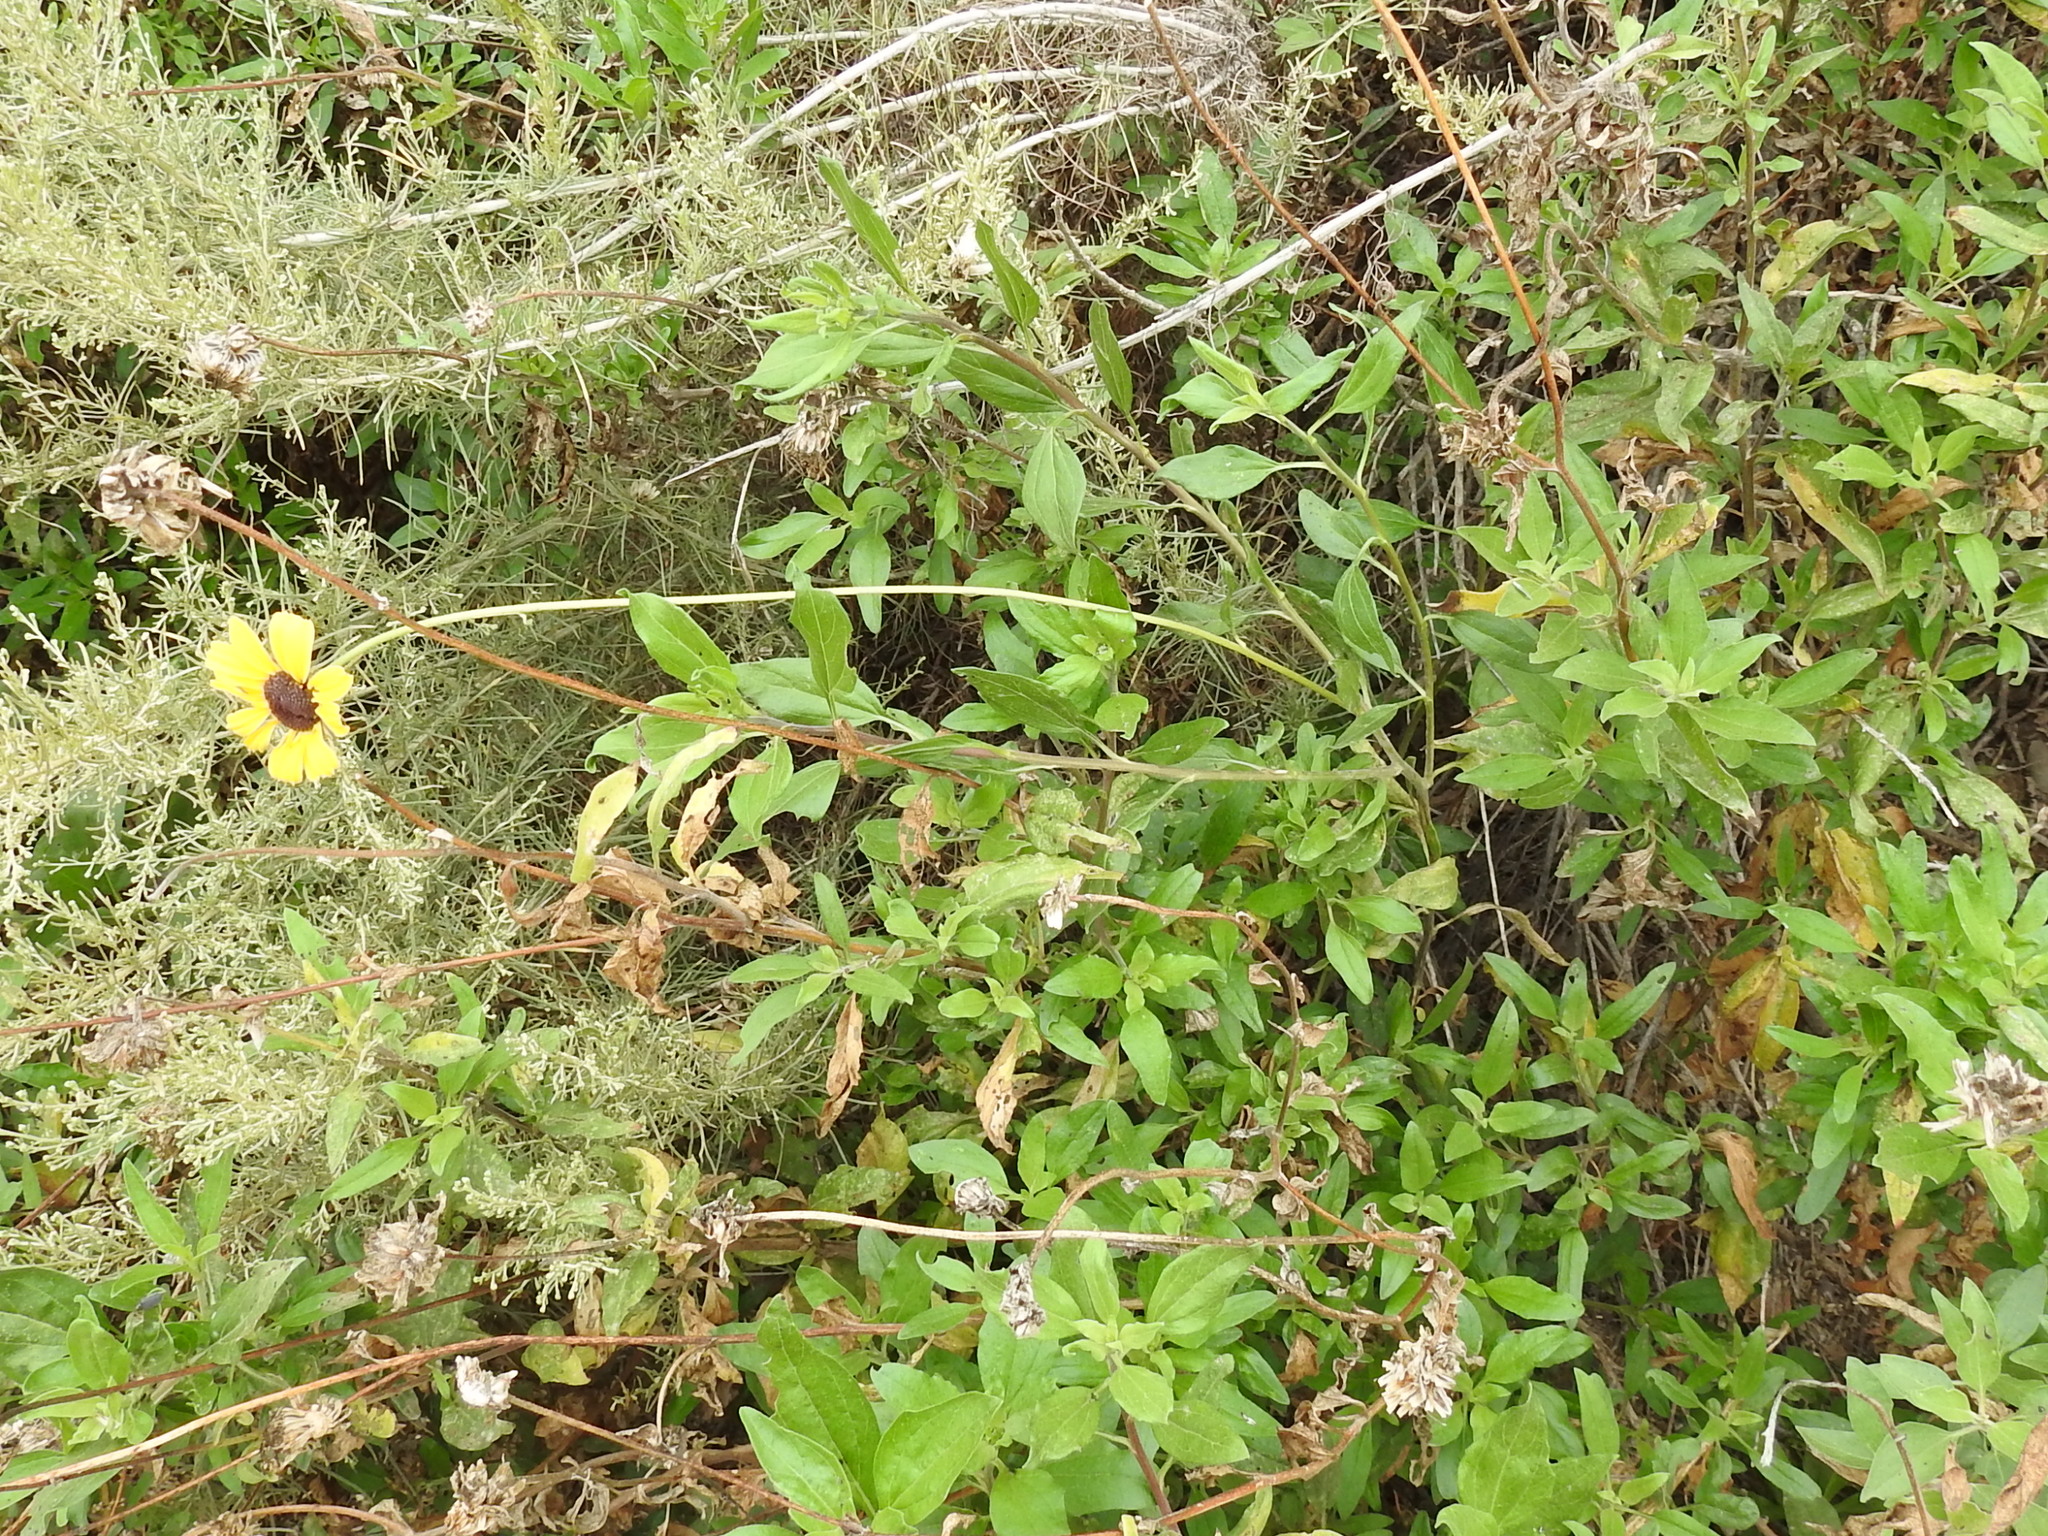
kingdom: Plantae
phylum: Tracheophyta
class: Magnoliopsida
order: Asterales
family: Asteraceae
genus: Encelia
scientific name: Encelia californica
